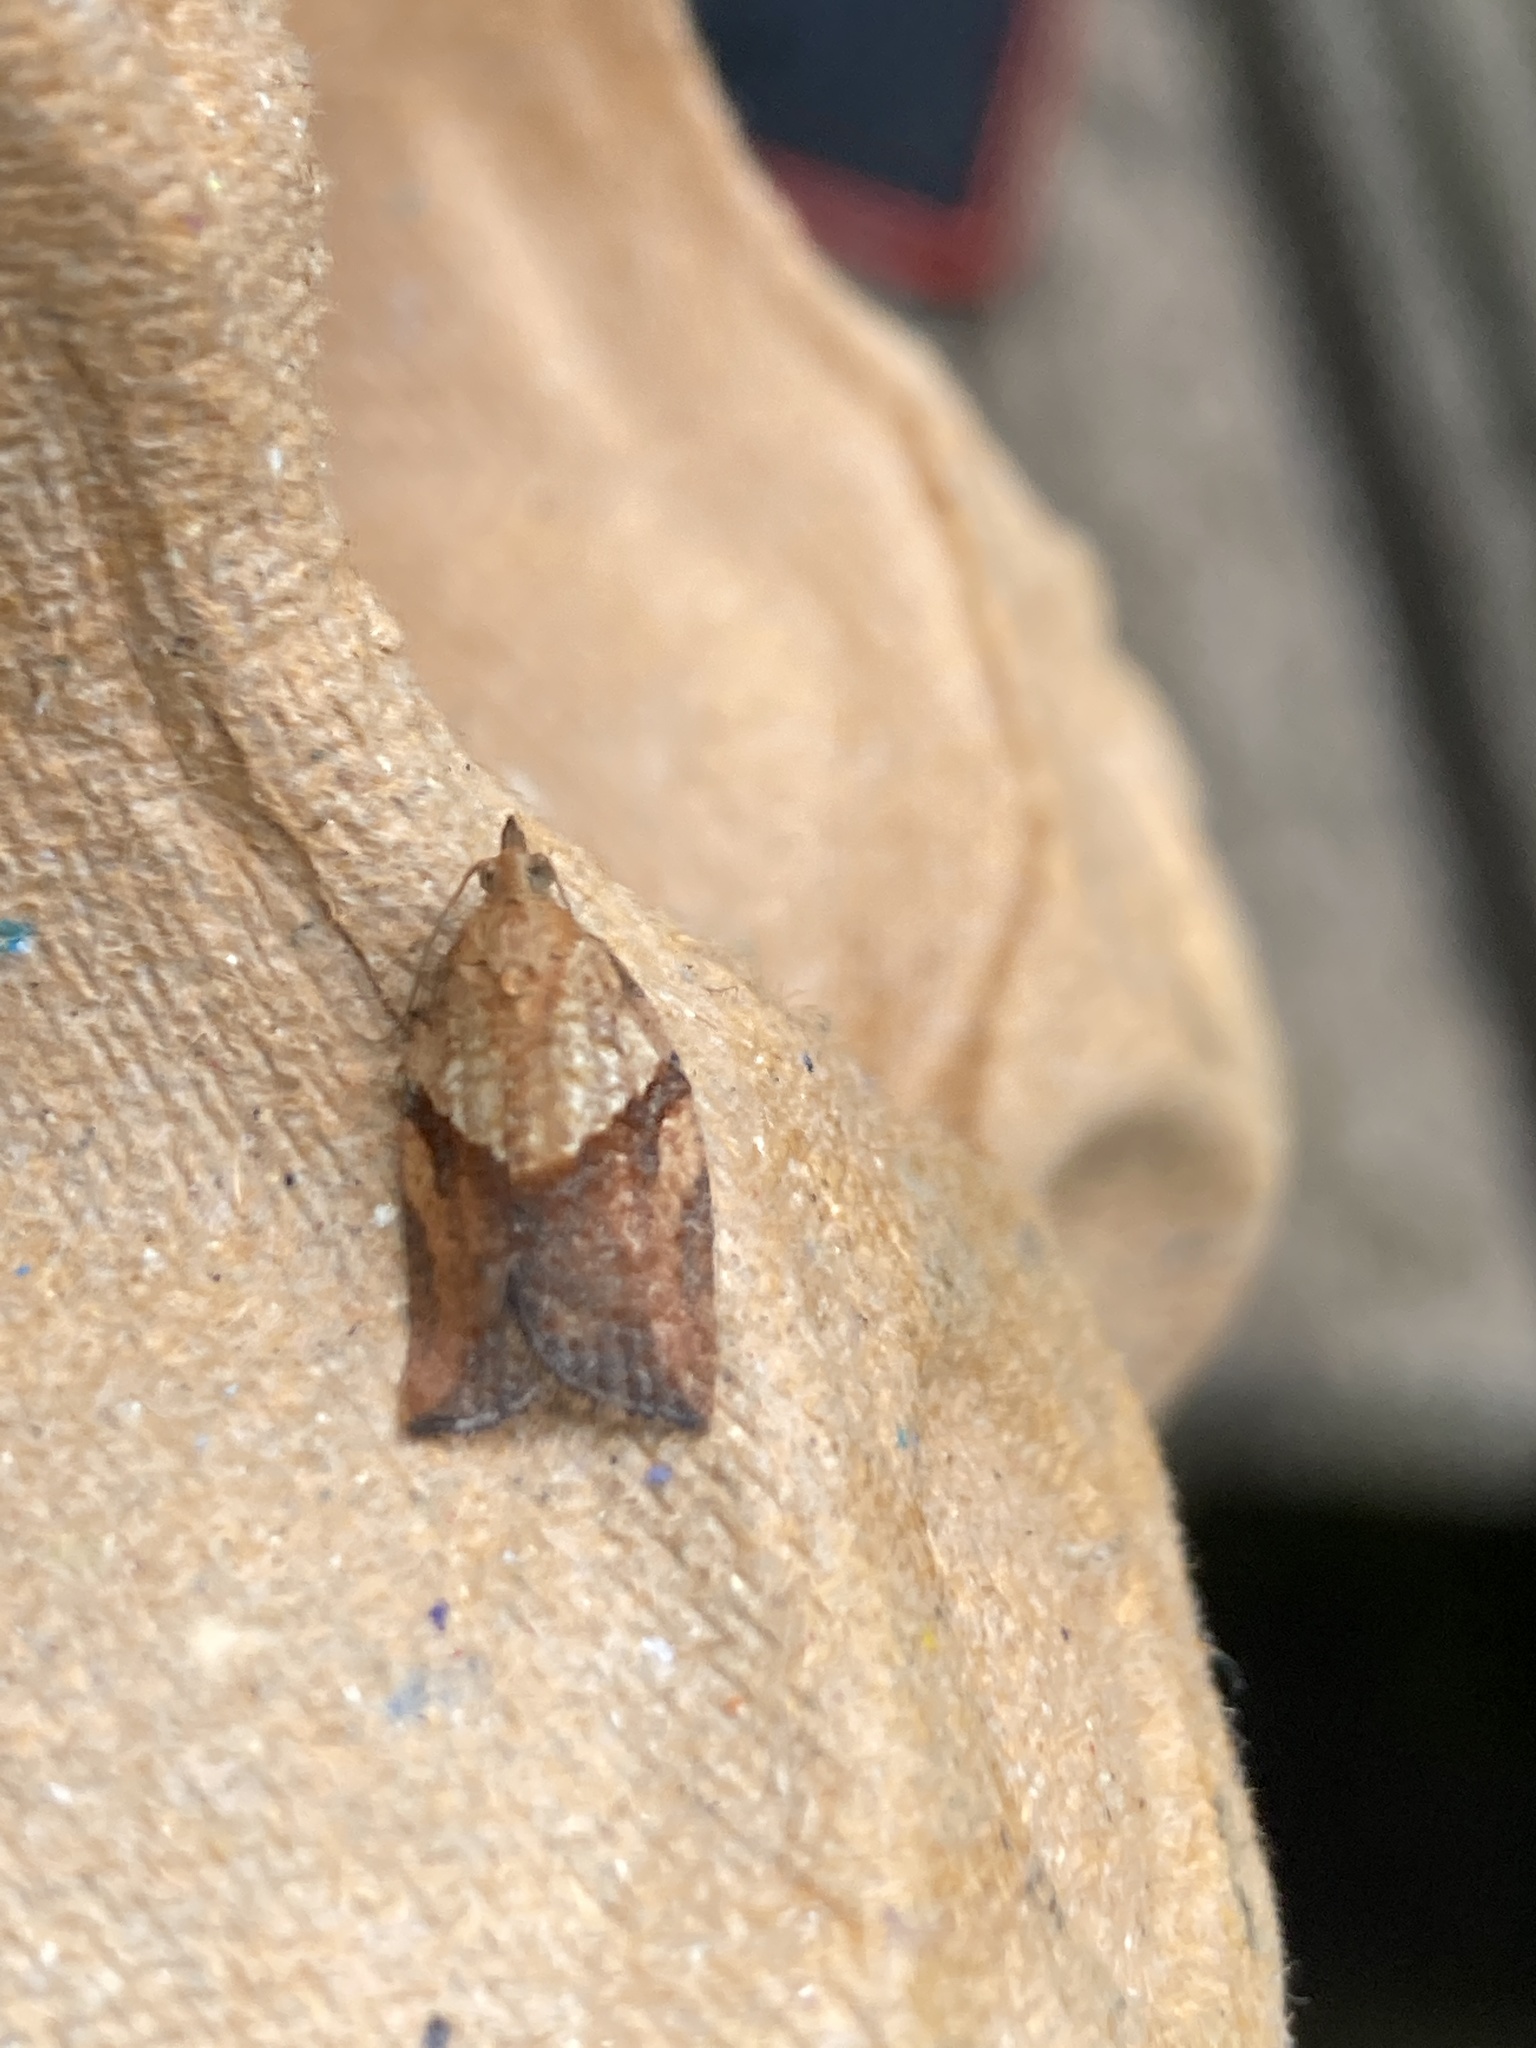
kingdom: Animalia
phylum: Arthropoda
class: Insecta
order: Lepidoptera
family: Tortricidae
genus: Epiphyas
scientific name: Epiphyas postvittana
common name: Light brown apple moth
